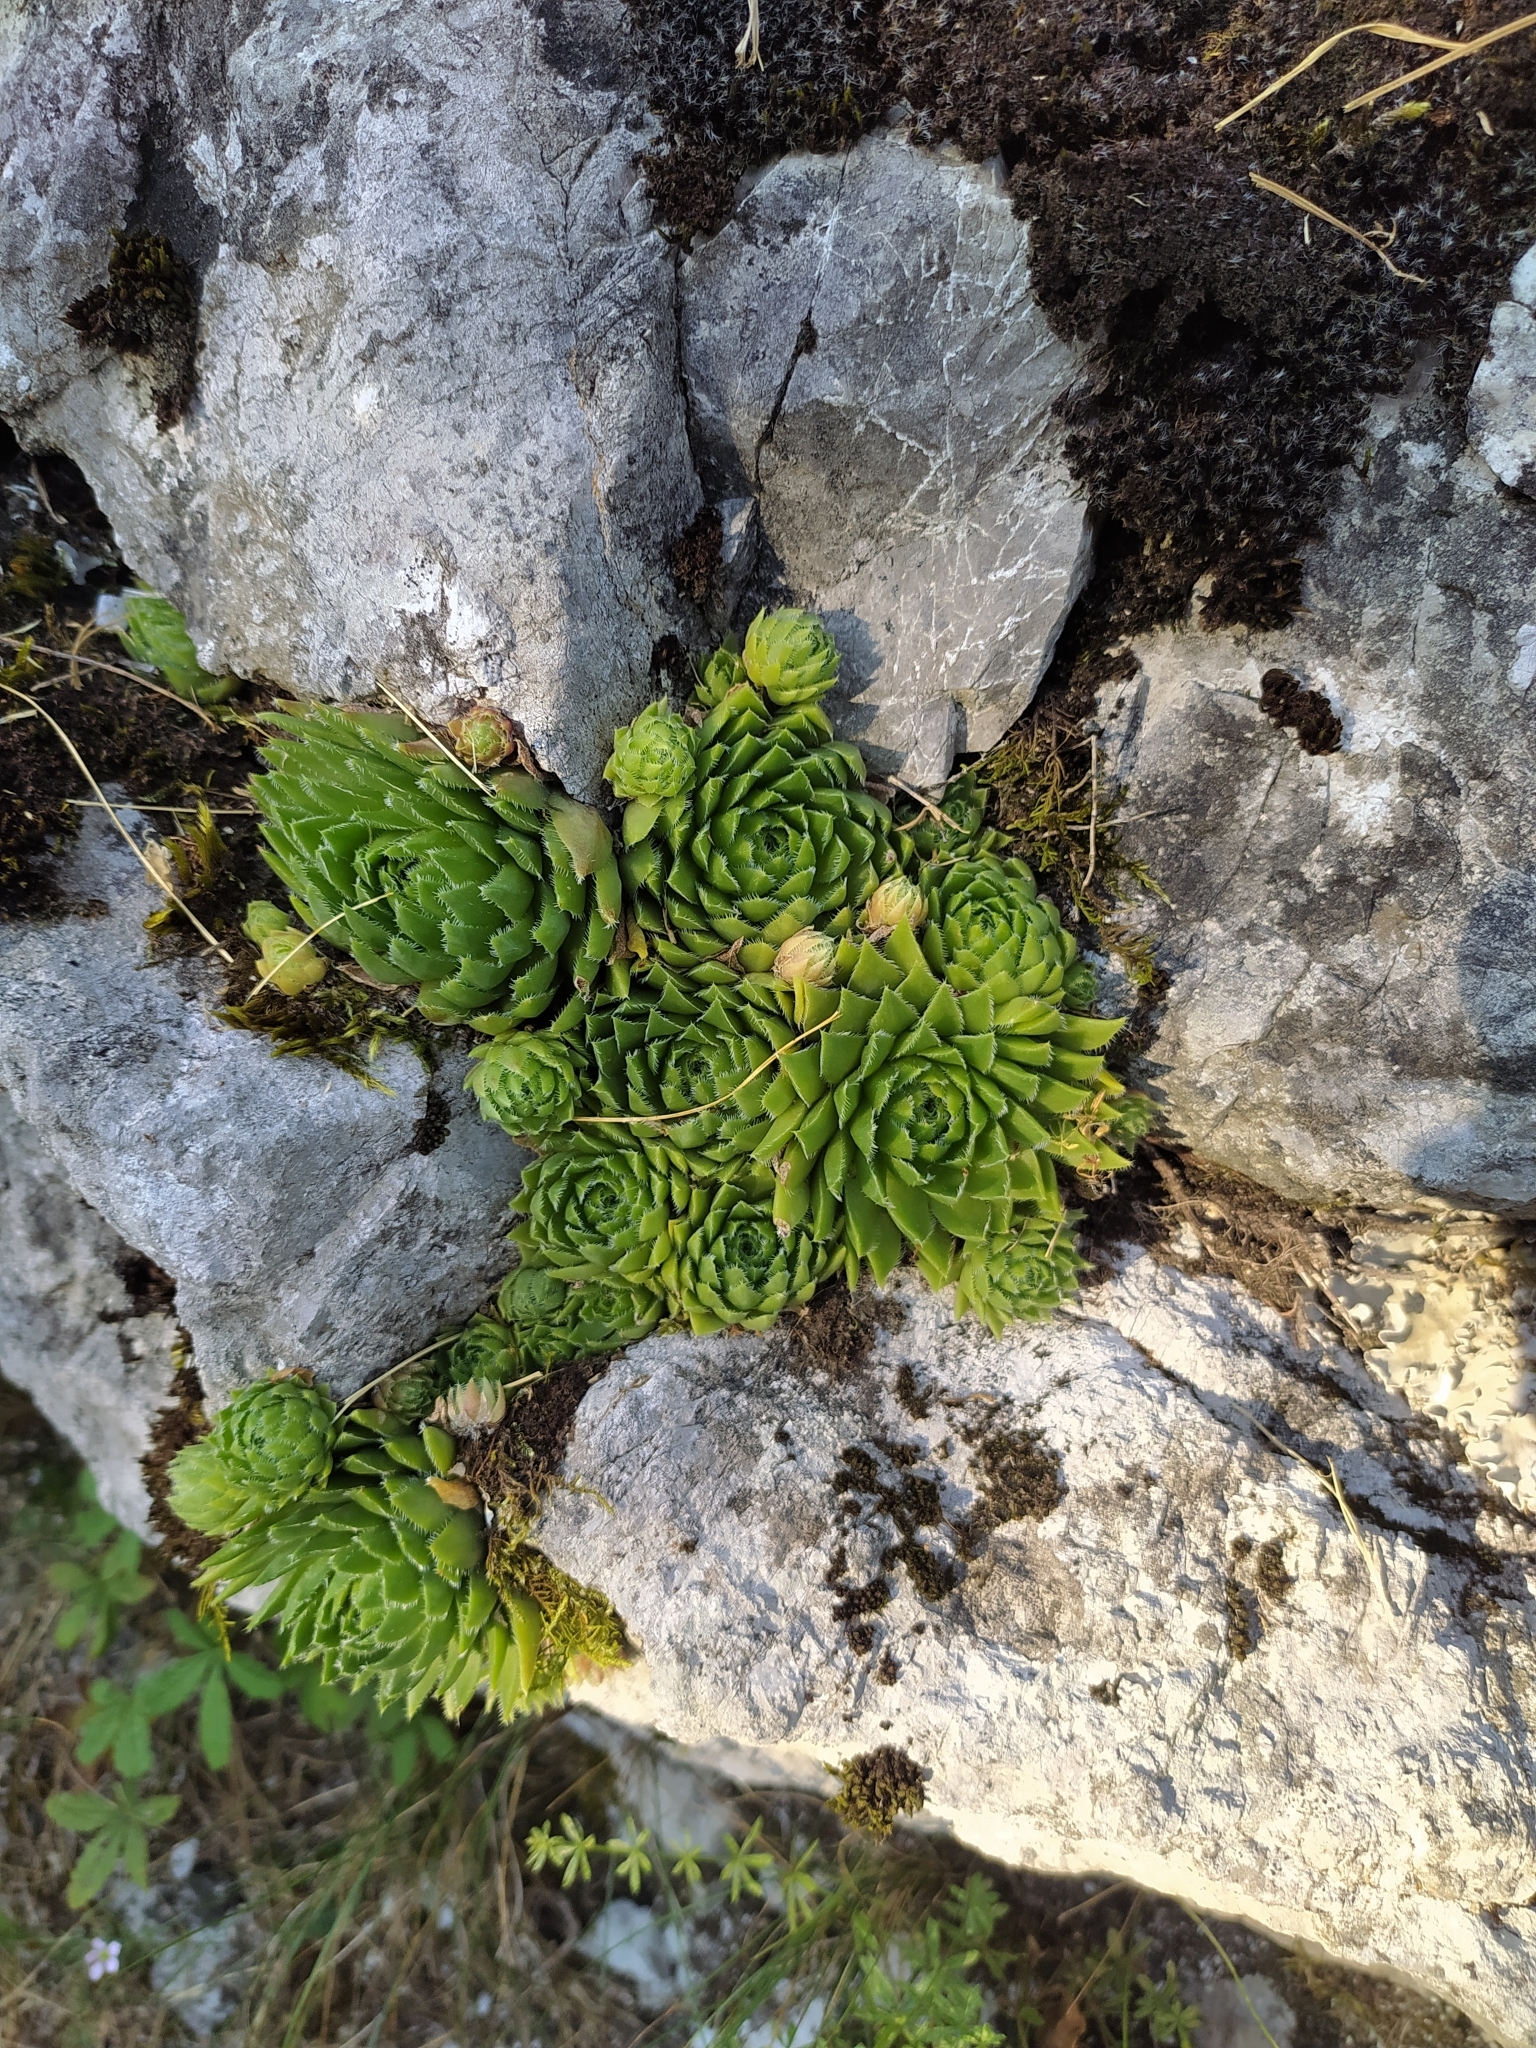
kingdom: Plantae
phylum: Tracheophyta
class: Magnoliopsida
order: Saxifragales
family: Crassulaceae
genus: Sempervivum
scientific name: Sempervivum globiferum
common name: Rolling hen-and-chicks
